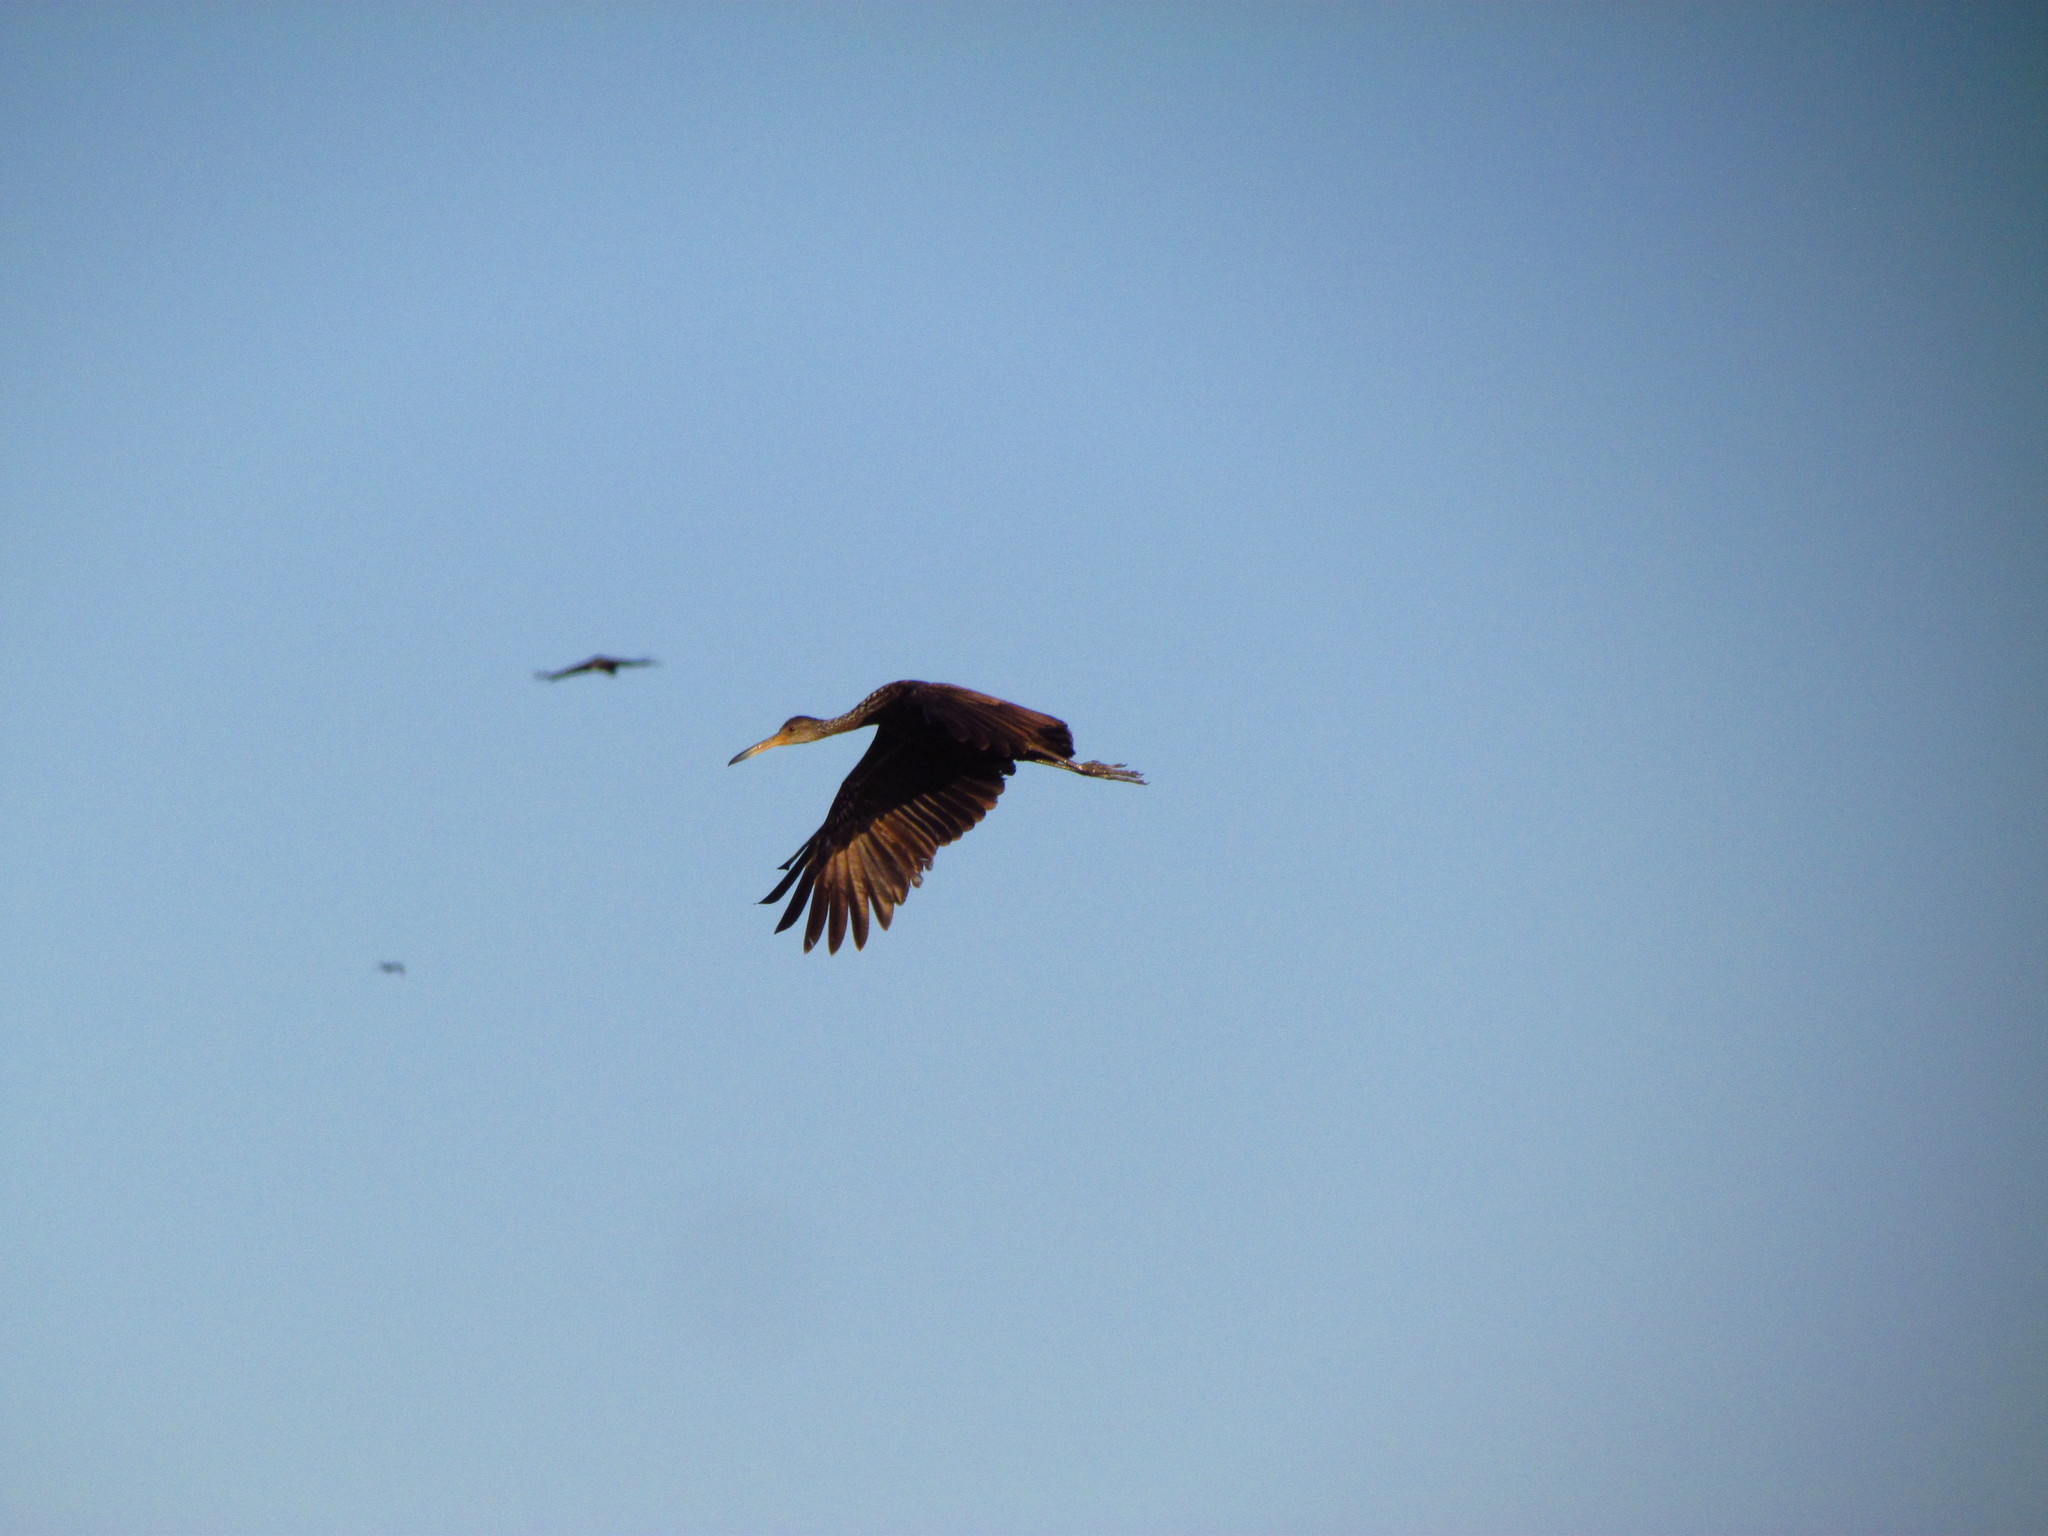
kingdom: Animalia
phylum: Chordata
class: Aves
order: Gruiformes
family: Aramidae
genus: Aramus
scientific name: Aramus guarauna
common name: Limpkin
